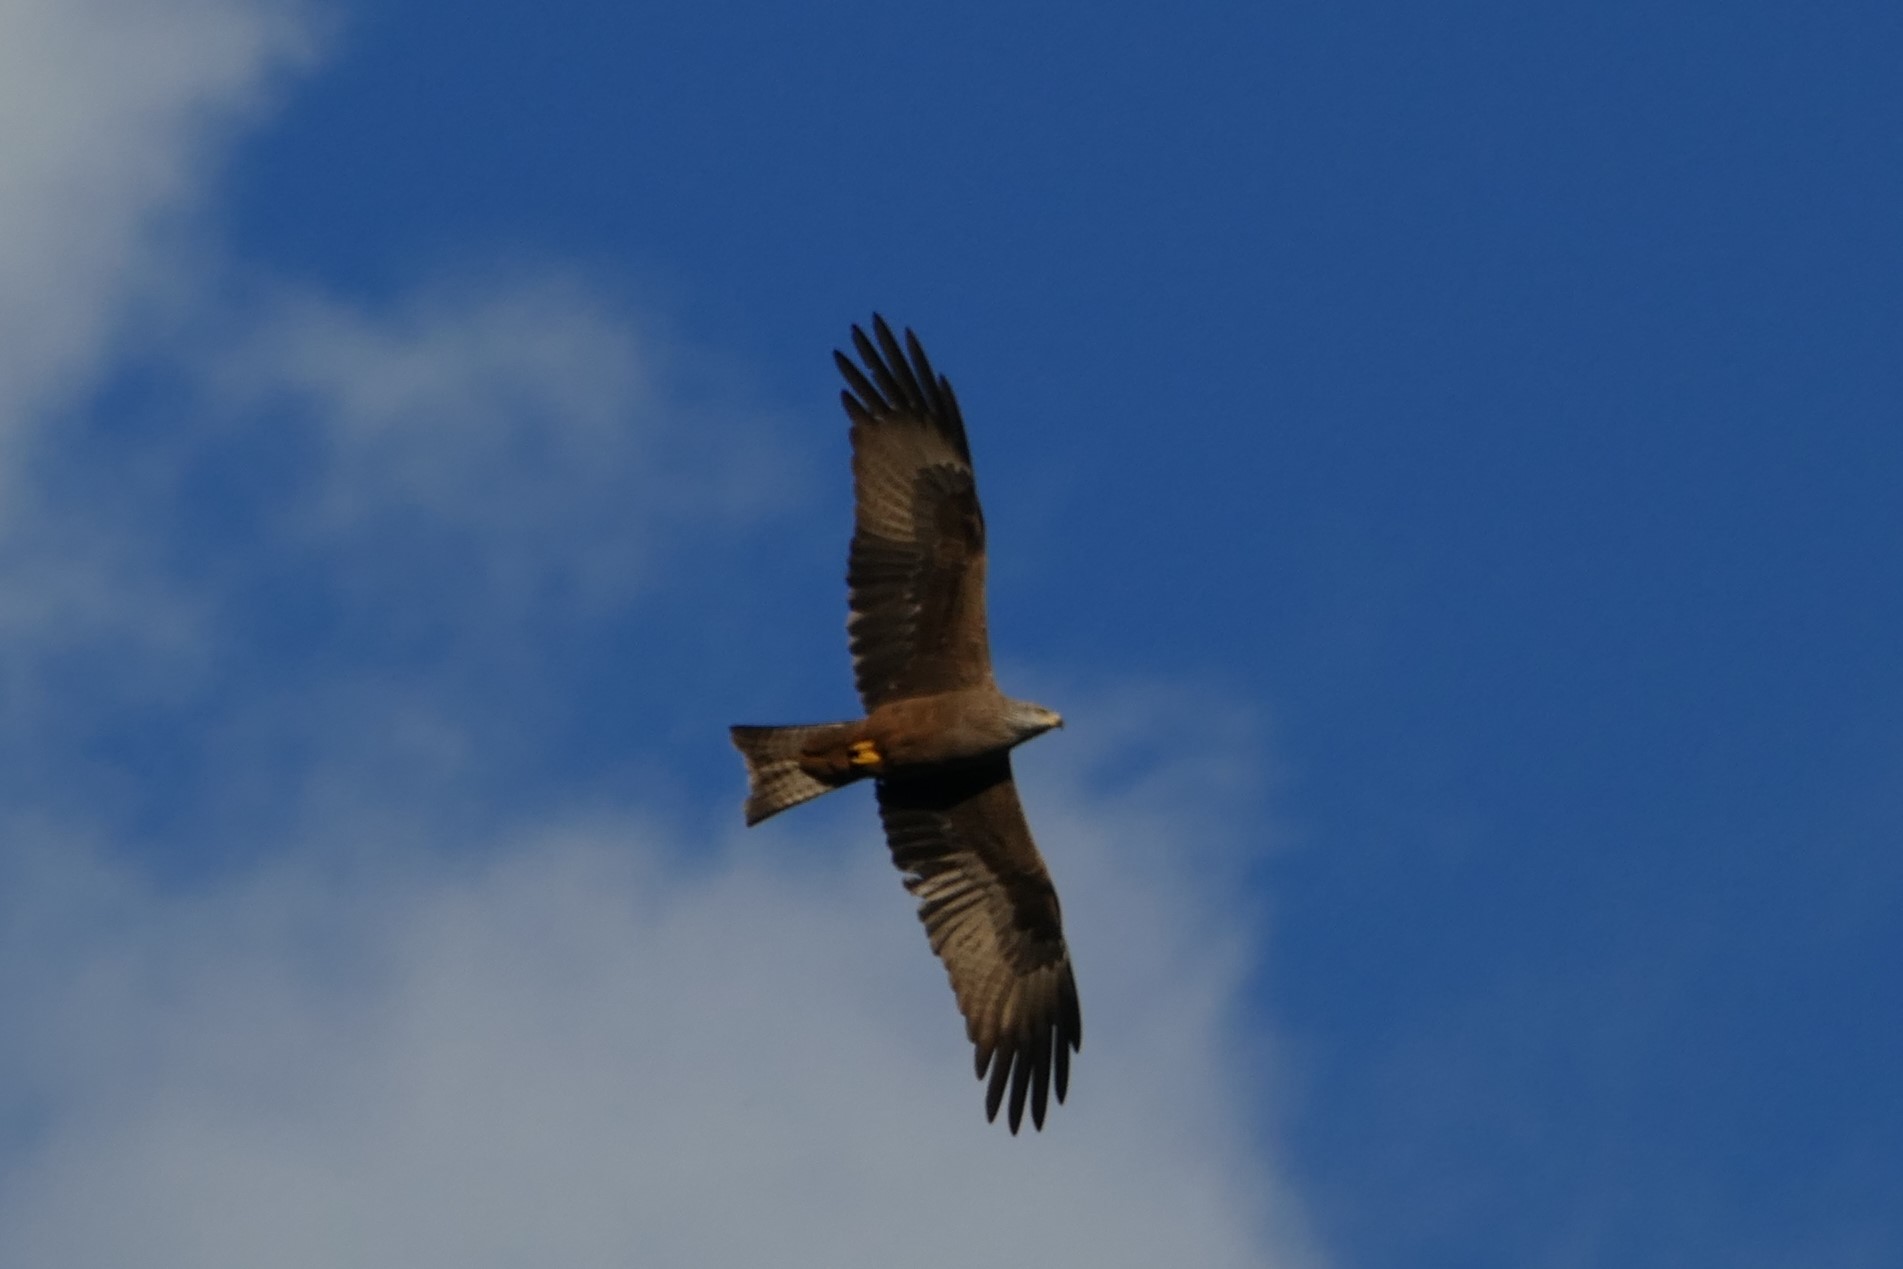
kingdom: Animalia
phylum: Chordata
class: Aves
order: Accipitriformes
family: Accipitridae
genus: Milvus
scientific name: Milvus migrans
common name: Black kite
